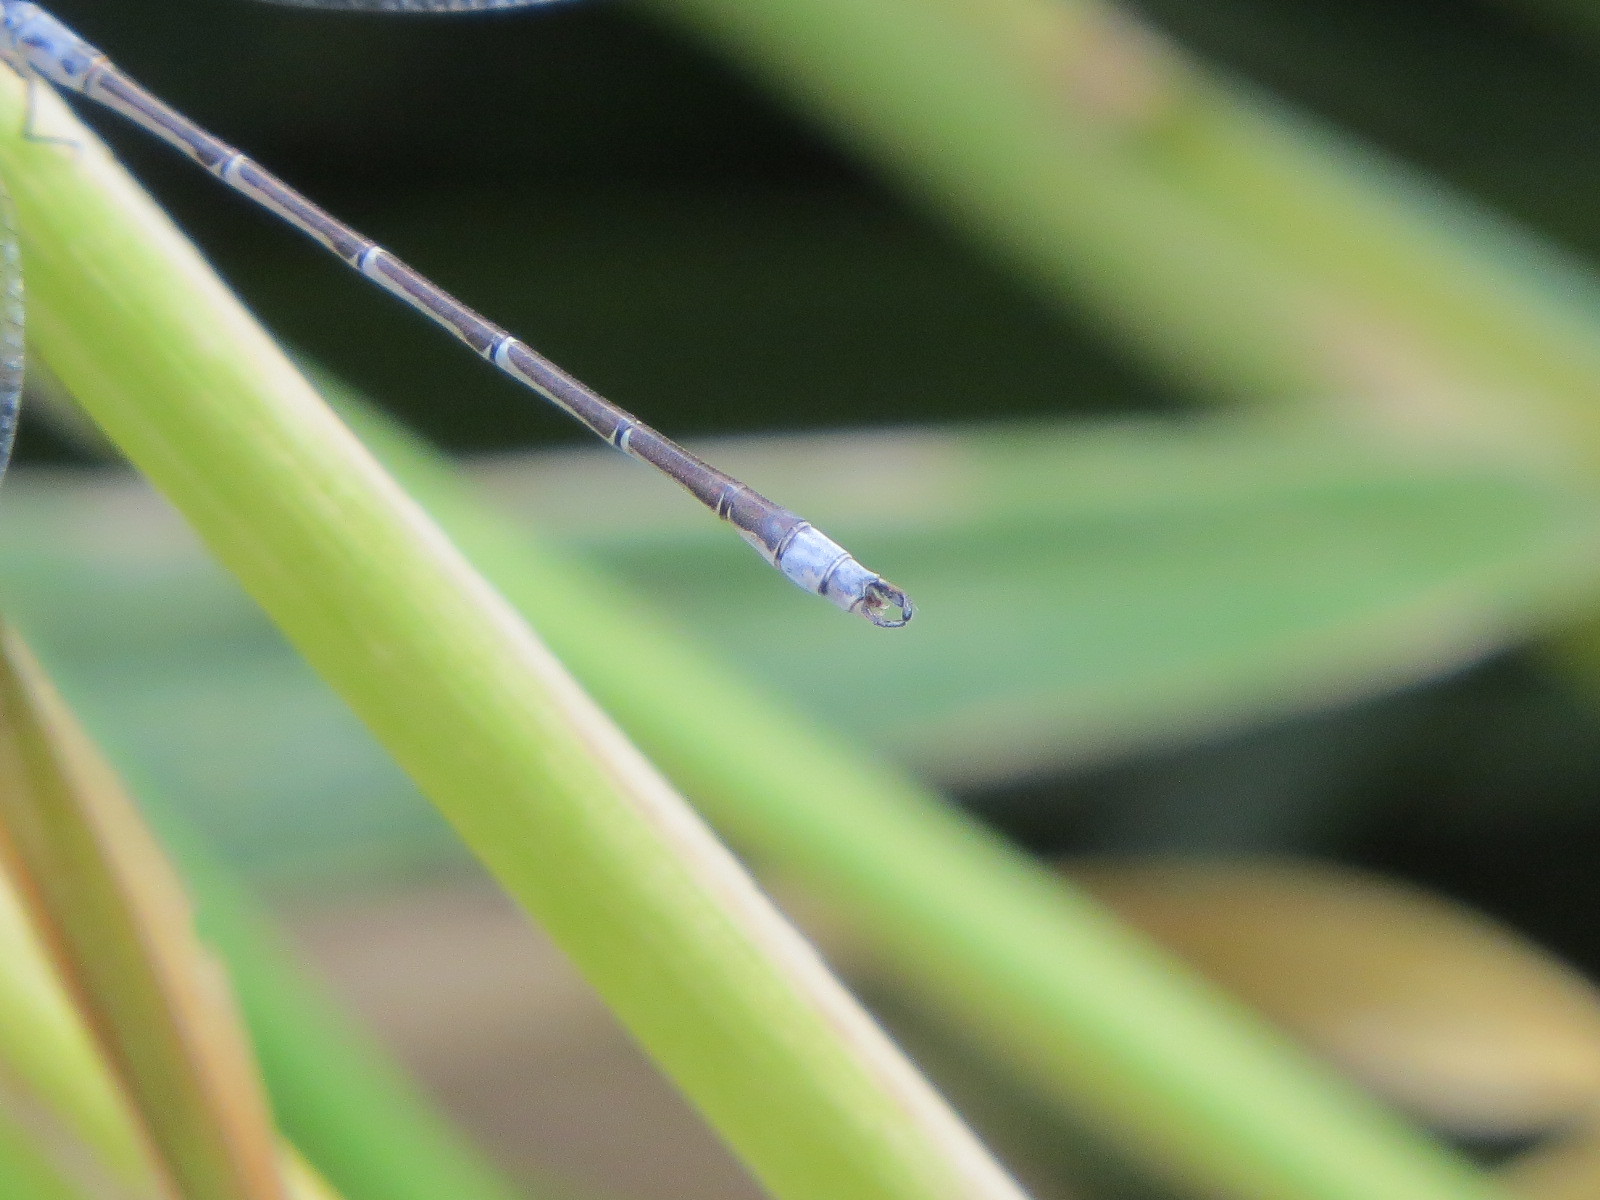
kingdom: Animalia
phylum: Arthropoda
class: Insecta
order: Odonata
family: Lestidae
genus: Lestes
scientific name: Lestes congener
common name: Spotted spreadwing
